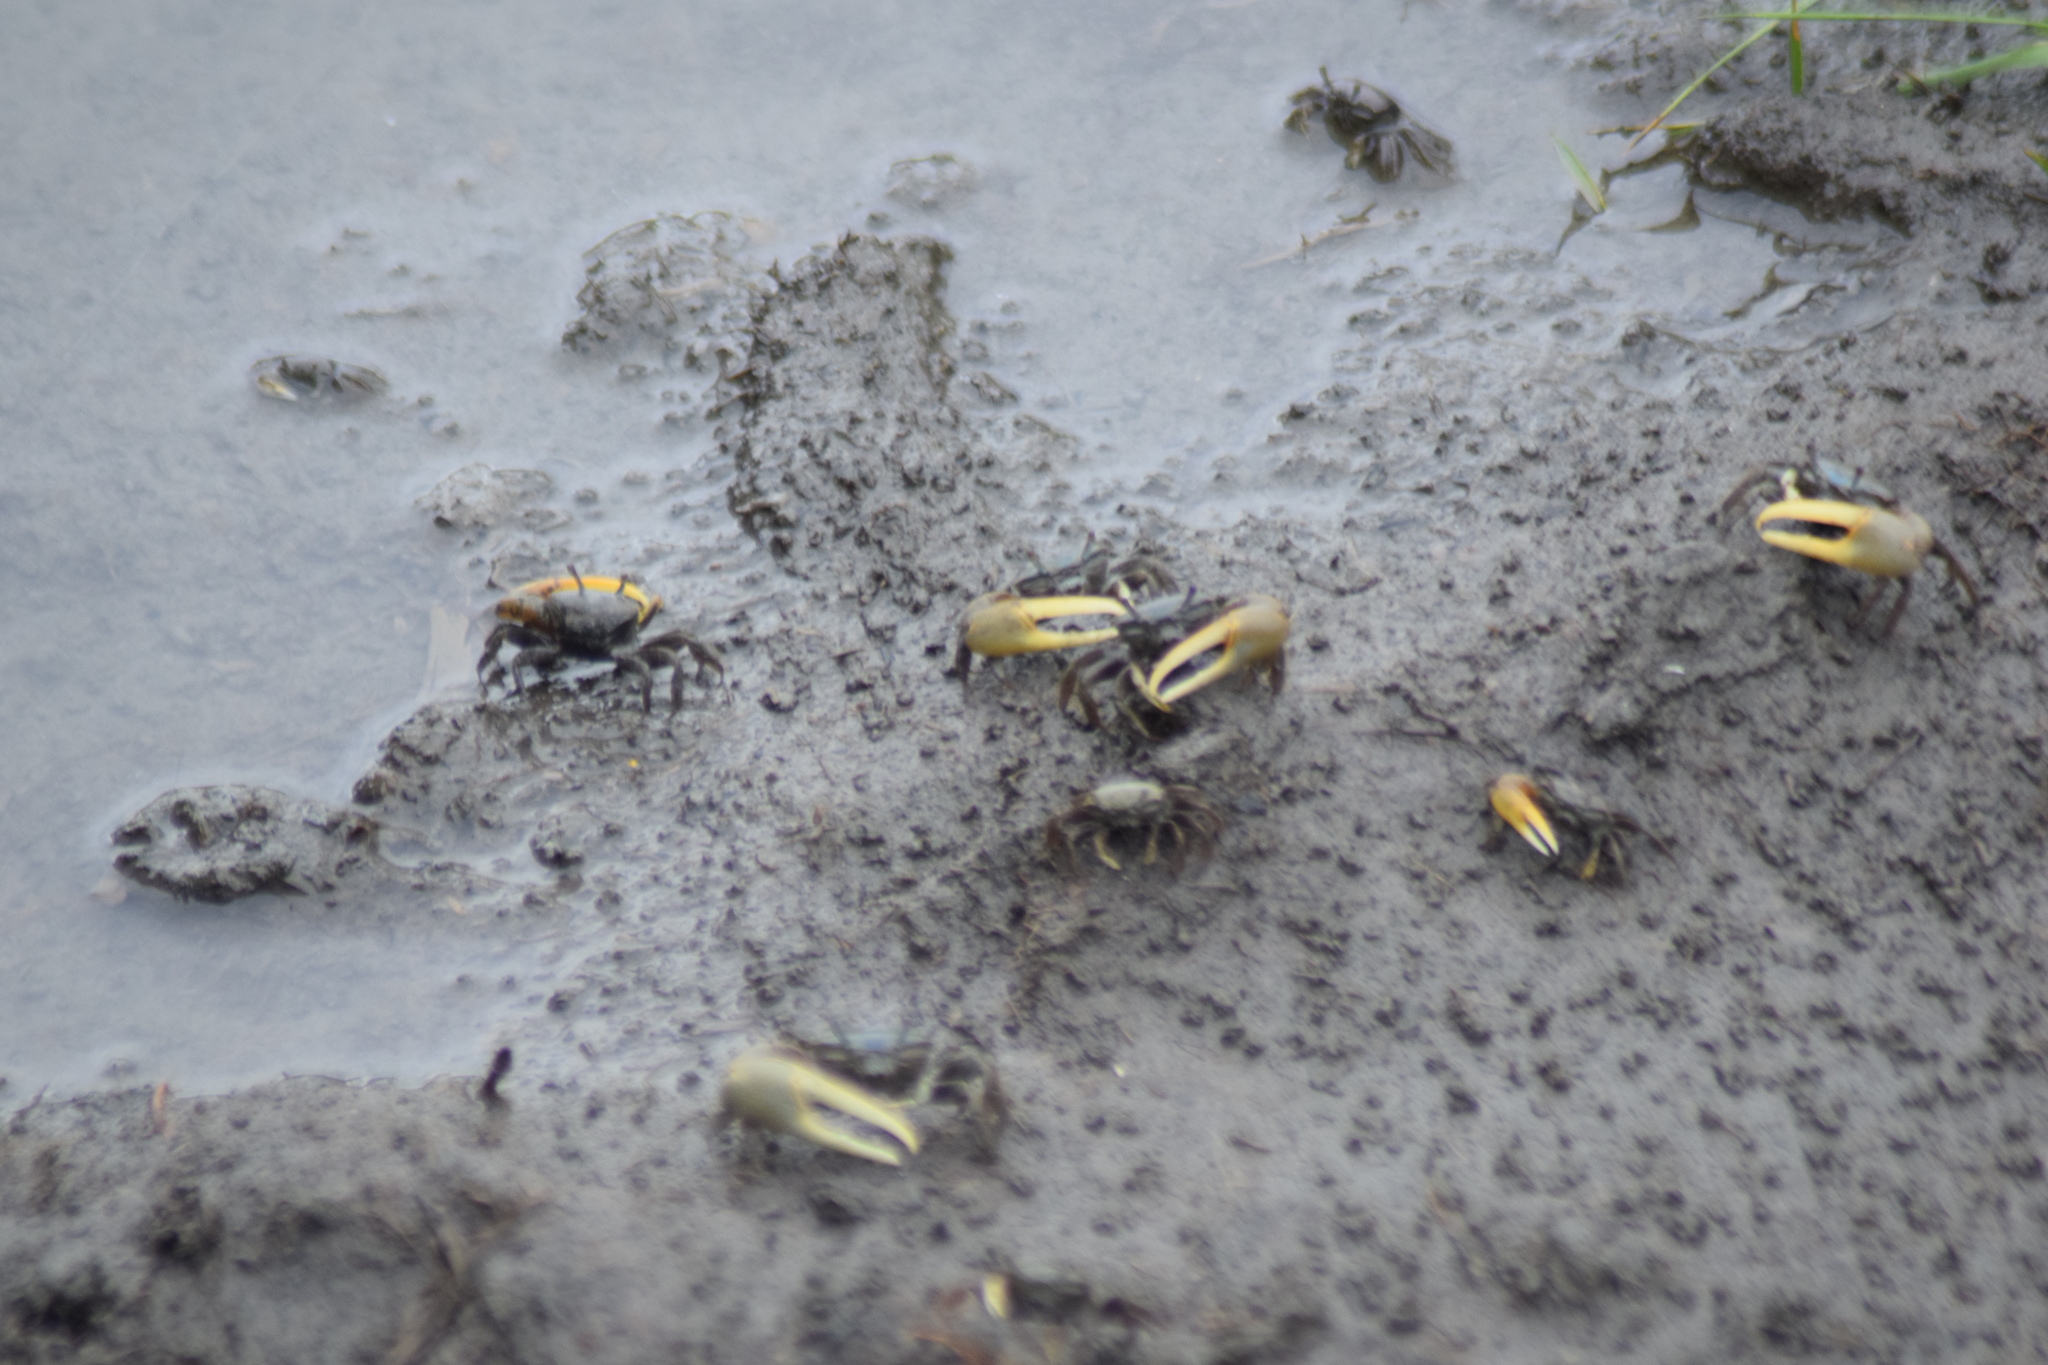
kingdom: Animalia
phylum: Arthropoda
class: Malacostraca
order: Decapoda
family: Ocypodidae
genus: Minuca
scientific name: Minuca pugnax
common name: Mud fiddler crab
